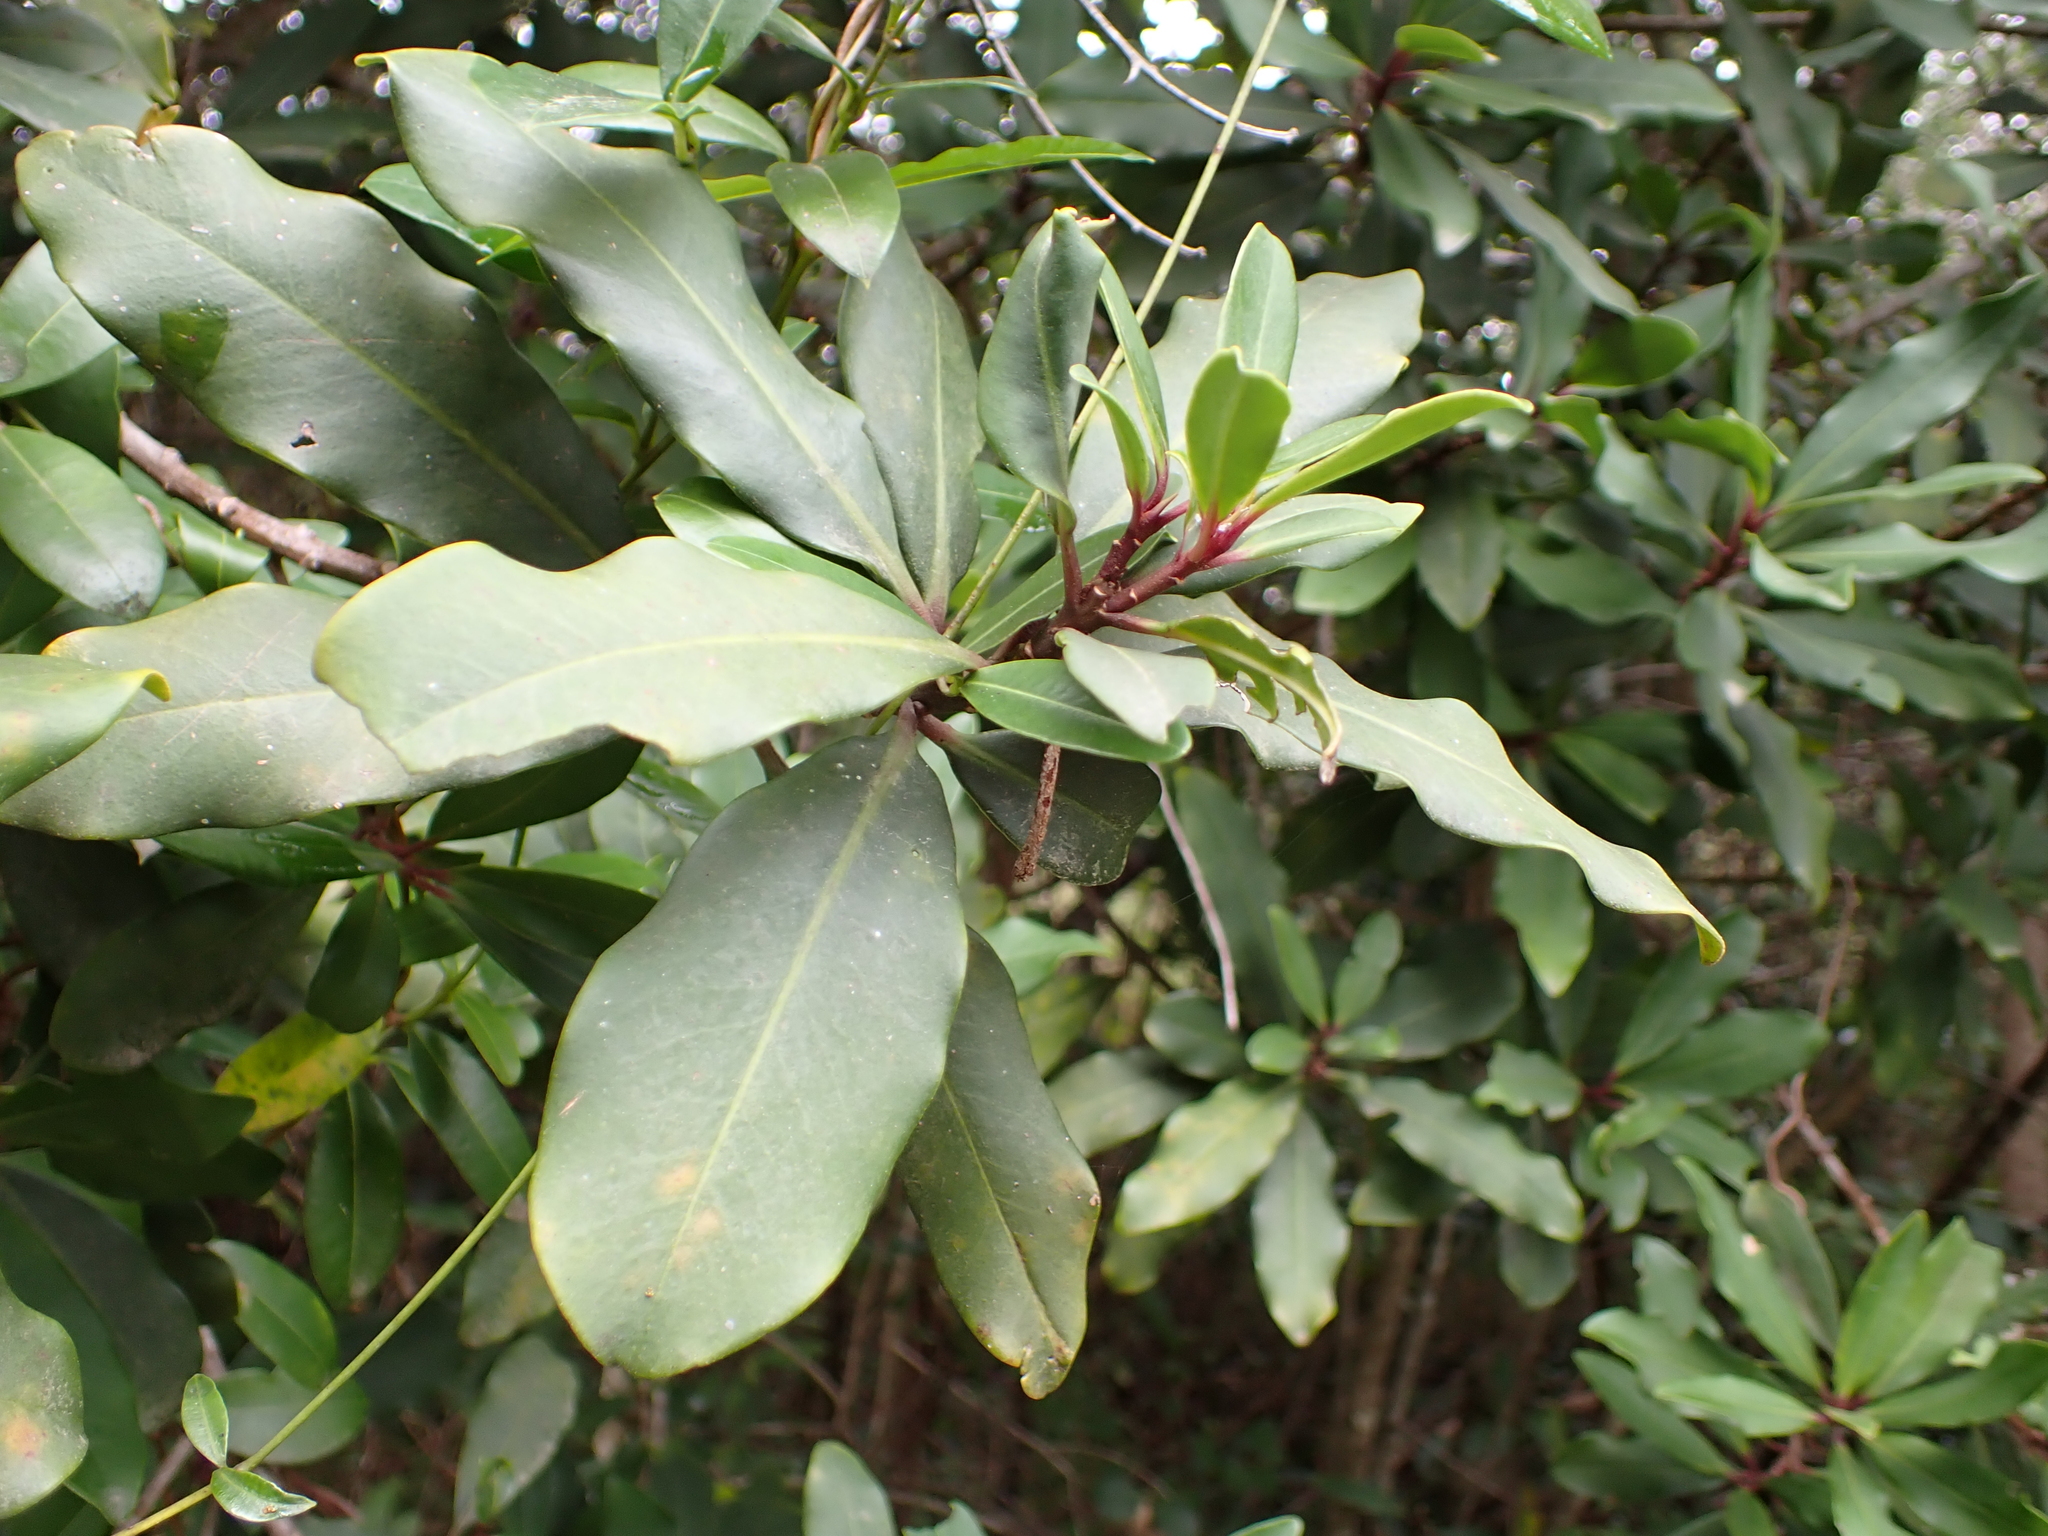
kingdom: Plantae
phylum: Tracheophyta
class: Magnoliopsida
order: Ericales
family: Primulaceae
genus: Myrsine
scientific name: Myrsine melanophloeos
